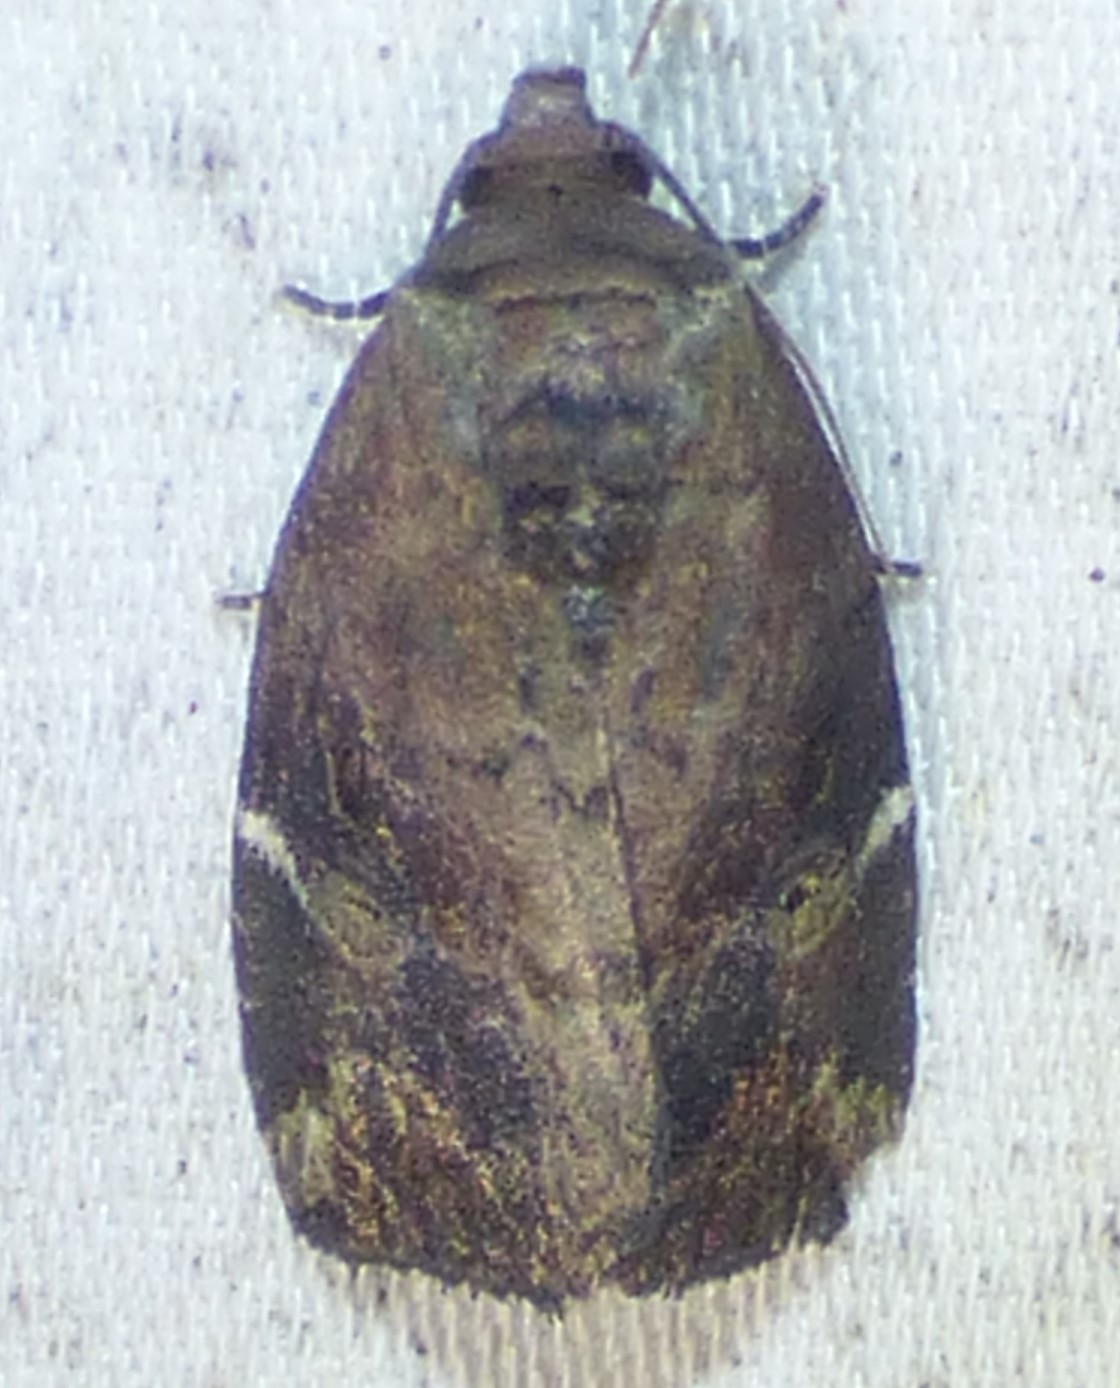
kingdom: Animalia
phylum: Arthropoda
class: Insecta
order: Lepidoptera
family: Noctuidae
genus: Elaphria
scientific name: Elaphria versicolor
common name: Fir harlequin
